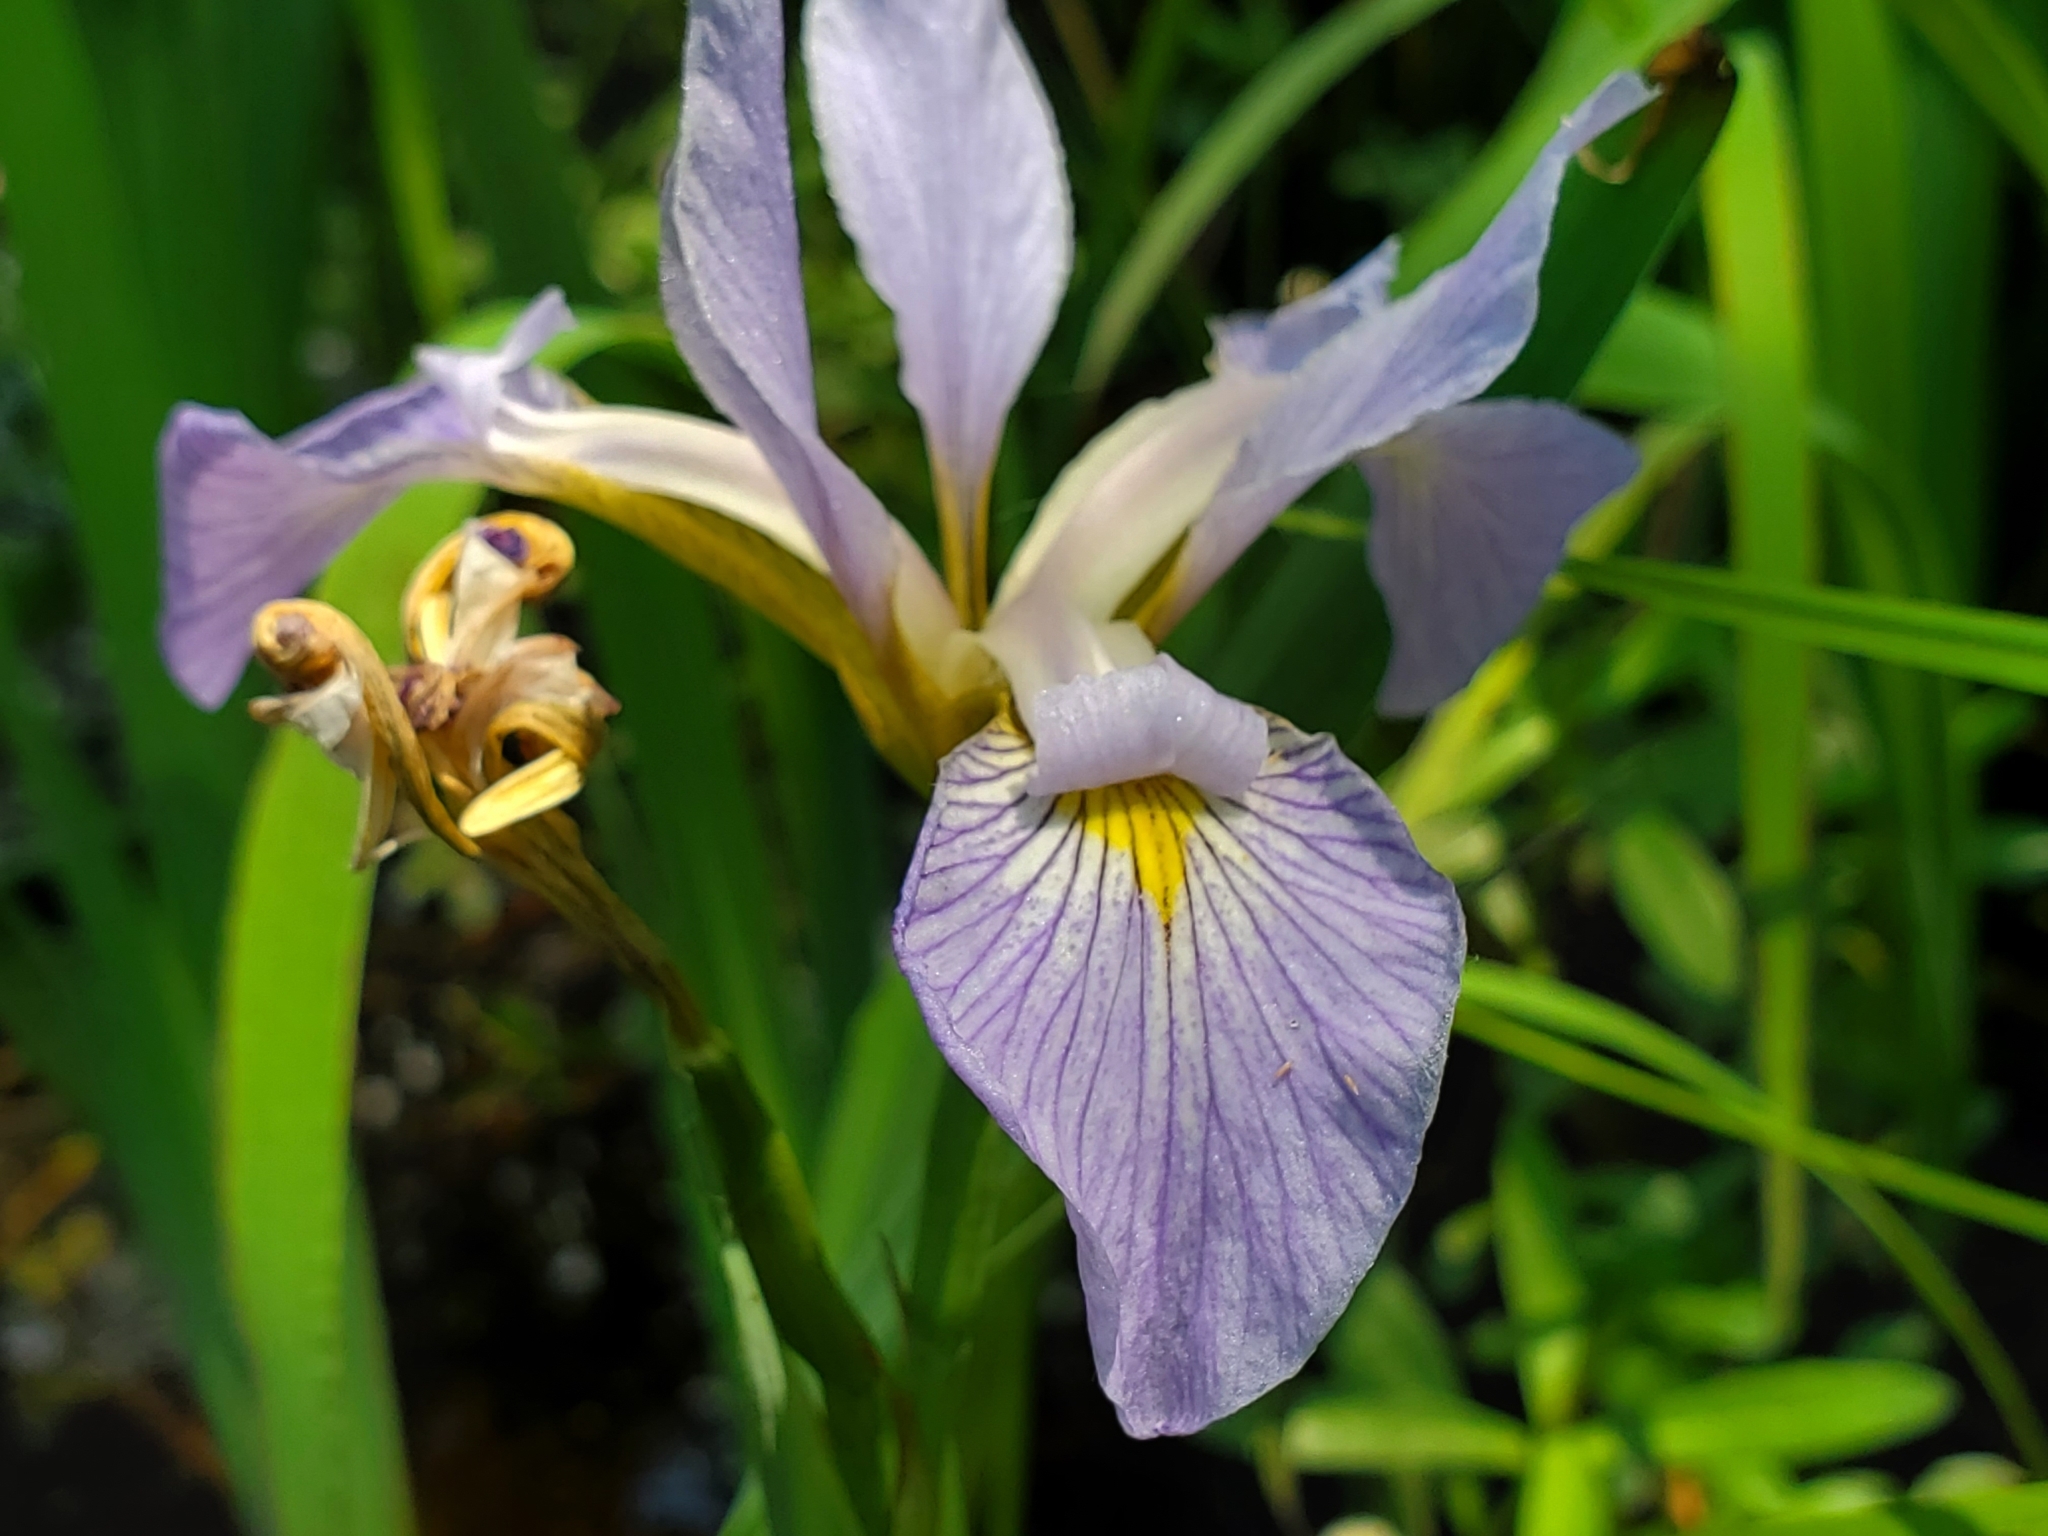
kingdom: Plantae
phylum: Tracheophyta
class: Liliopsida
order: Asparagales
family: Iridaceae
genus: Iris
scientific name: Iris virginica
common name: Southern blue flag
